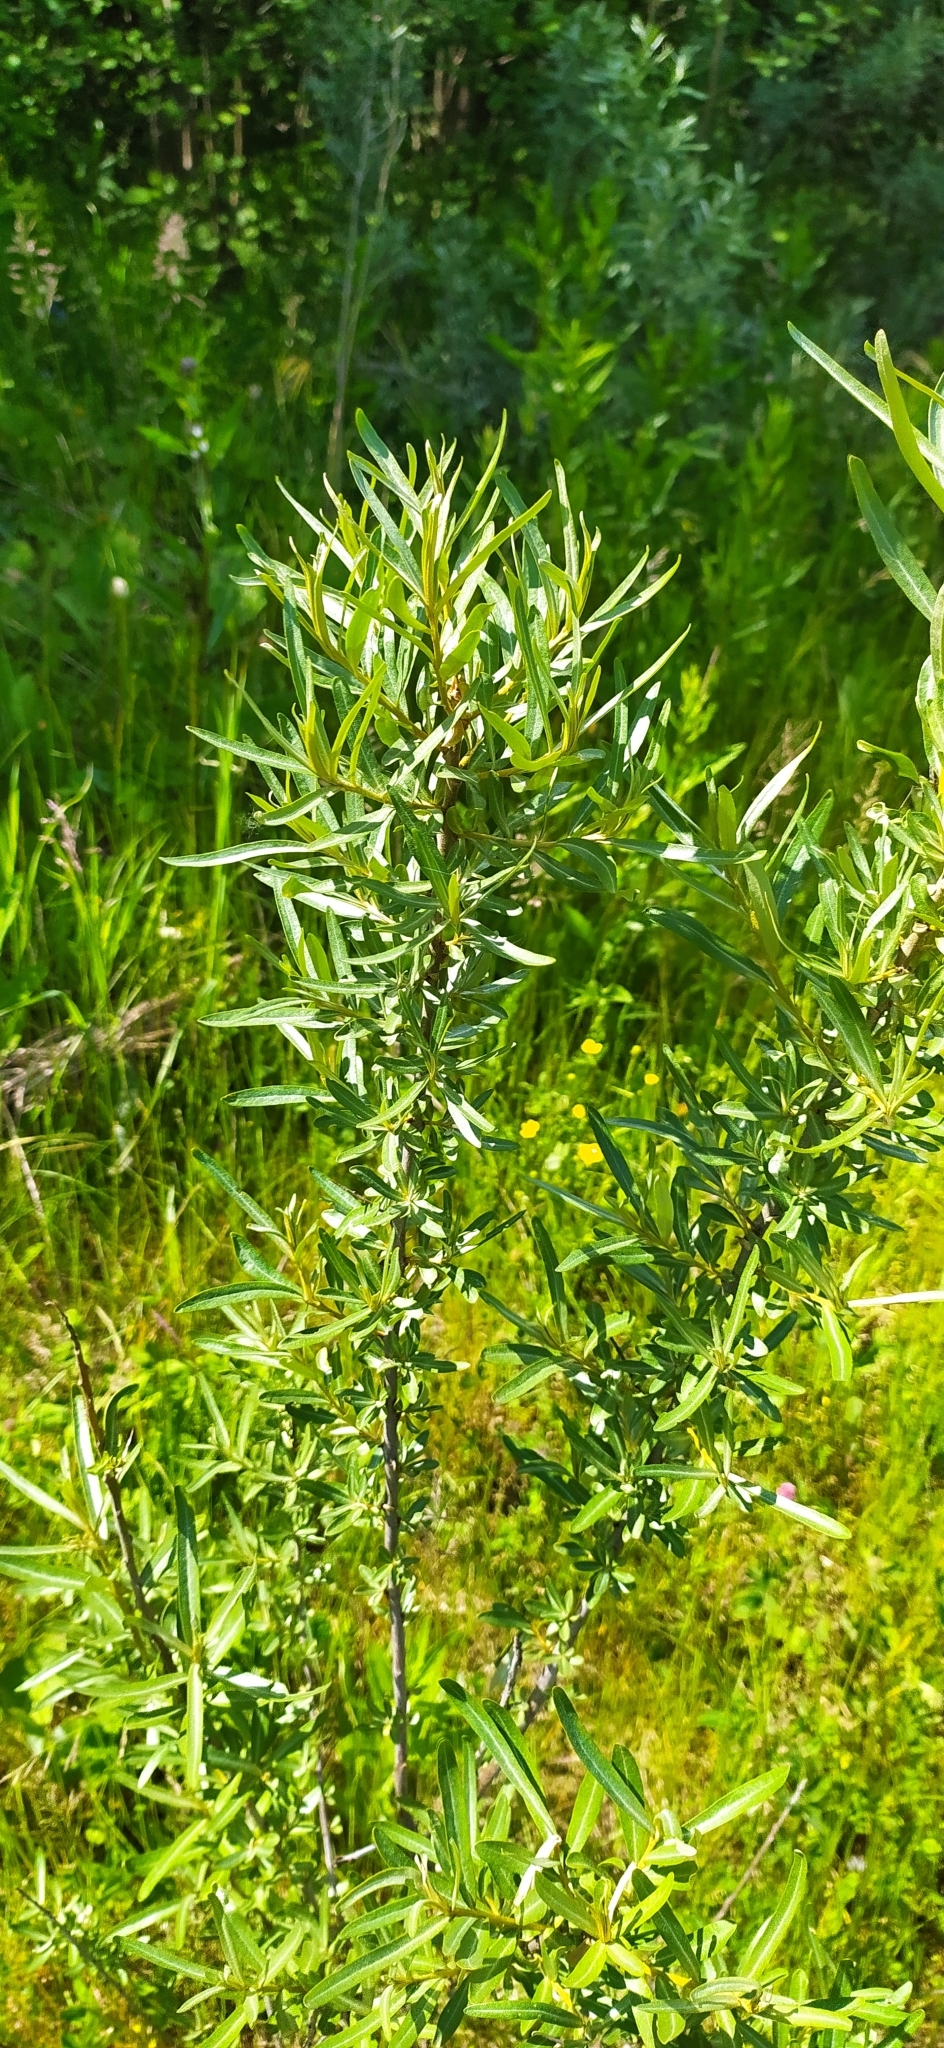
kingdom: Plantae
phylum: Tracheophyta
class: Magnoliopsida
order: Rosales
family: Elaeagnaceae
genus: Hippophae
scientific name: Hippophae rhamnoides
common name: Sea-buckthorn
